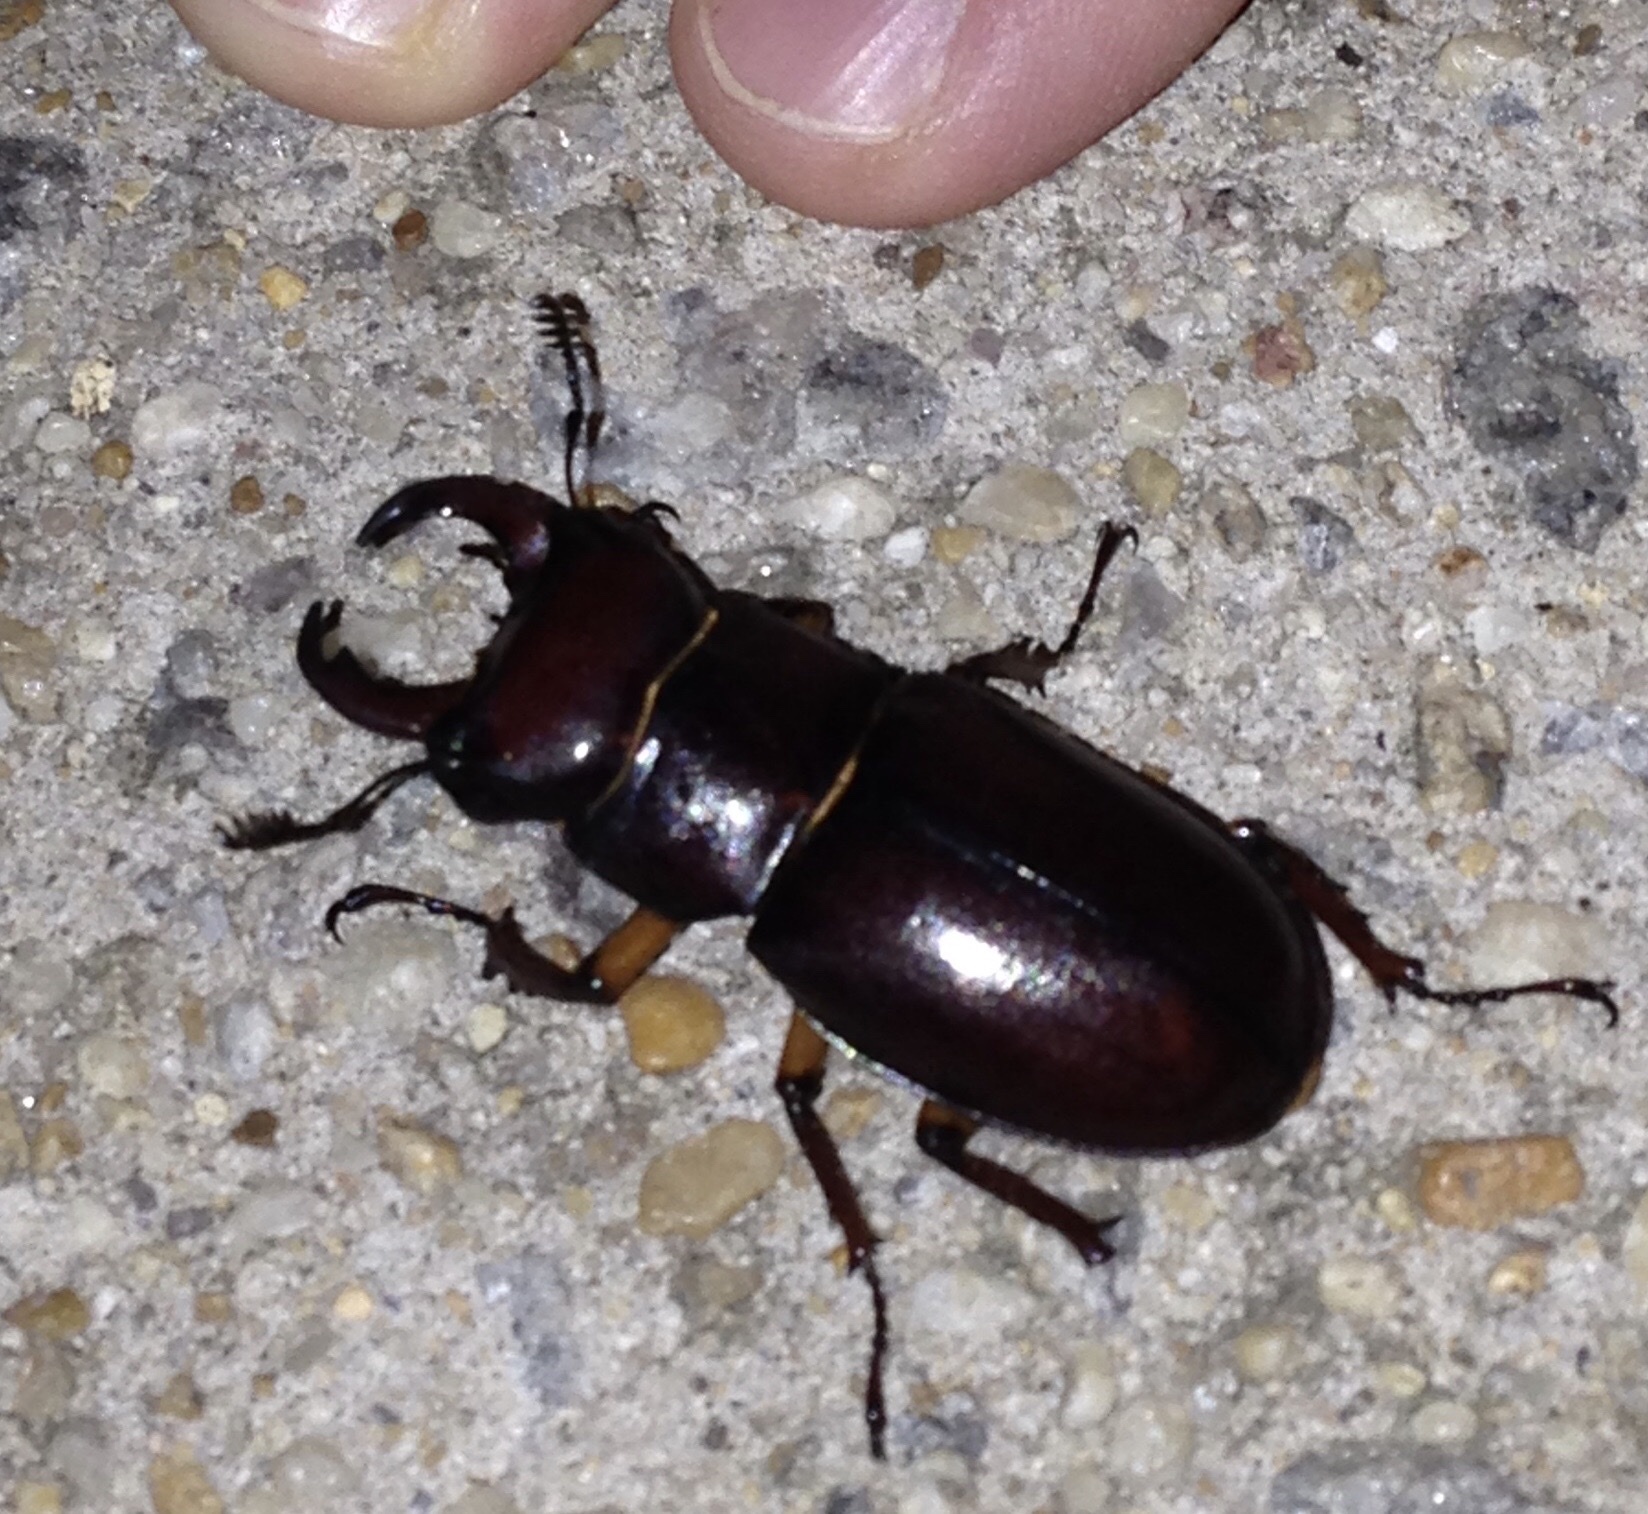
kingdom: Animalia
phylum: Arthropoda
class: Insecta
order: Coleoptera
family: Lucanidae
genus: Lucanus
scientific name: Lucanus capreolus
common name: Stag beetle
